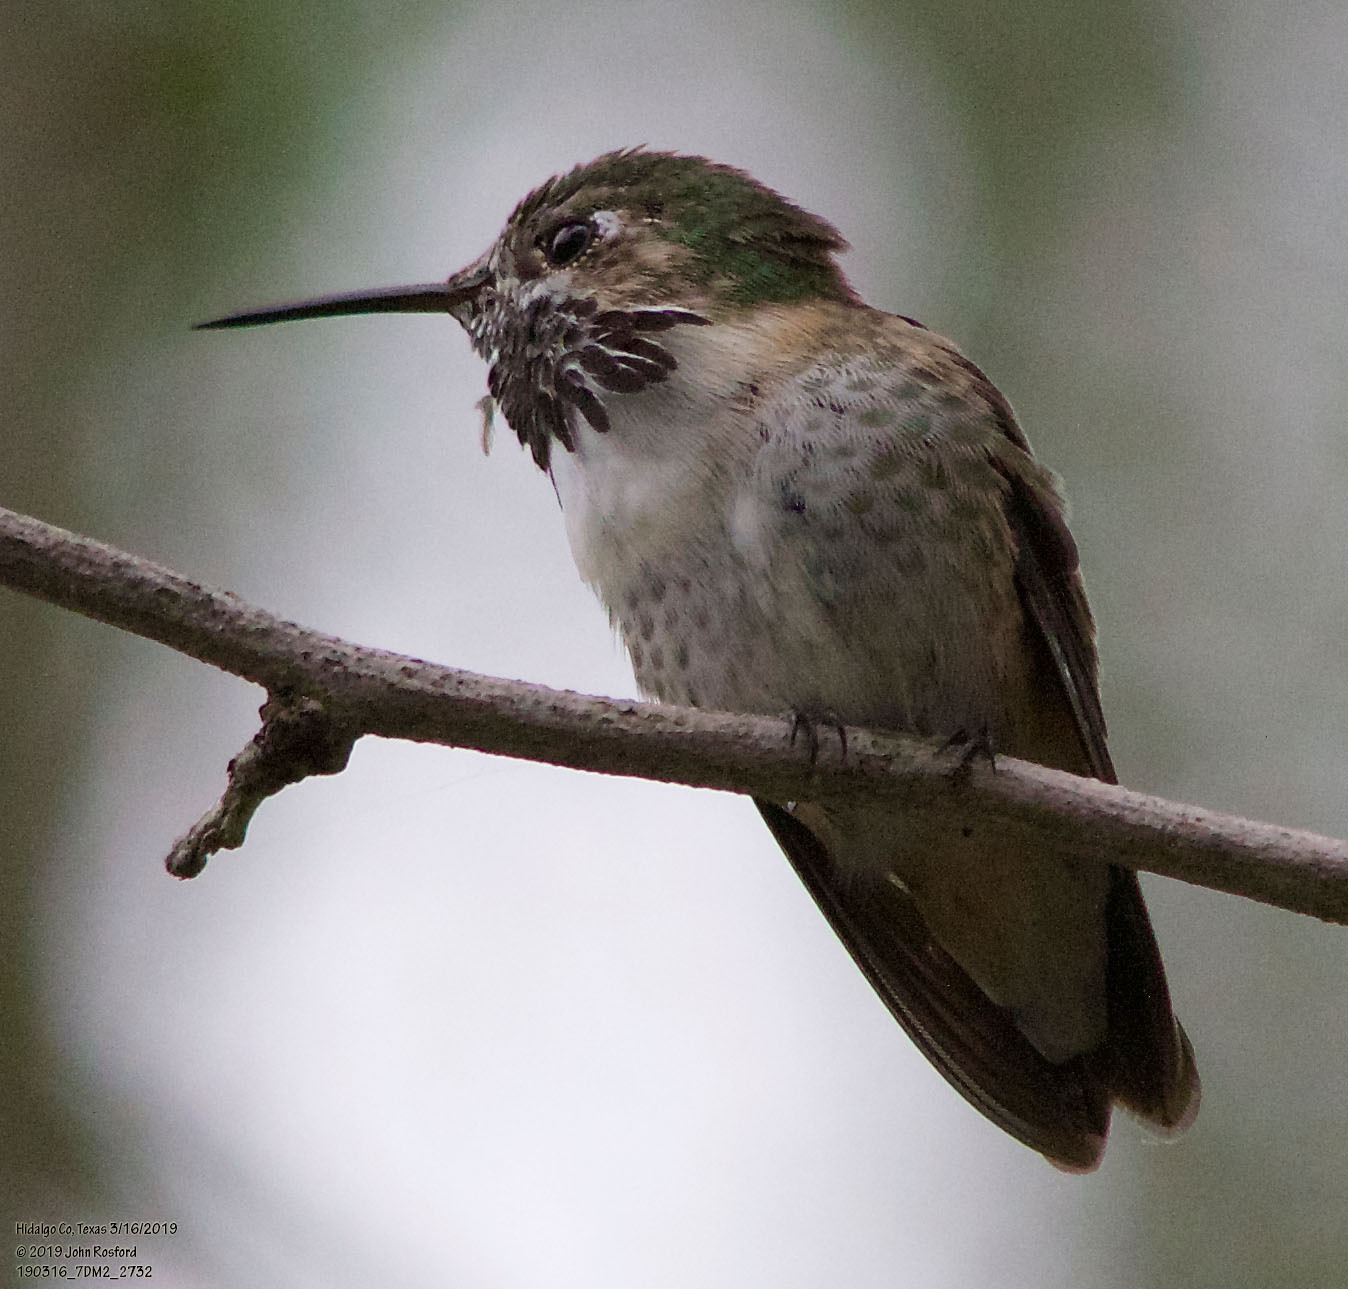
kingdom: Animalia
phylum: Chordata
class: Aves
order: Apodiformes
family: Trochilidae
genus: Selasphorus
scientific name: Selasphorus calliope
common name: Calliope hummingbird
